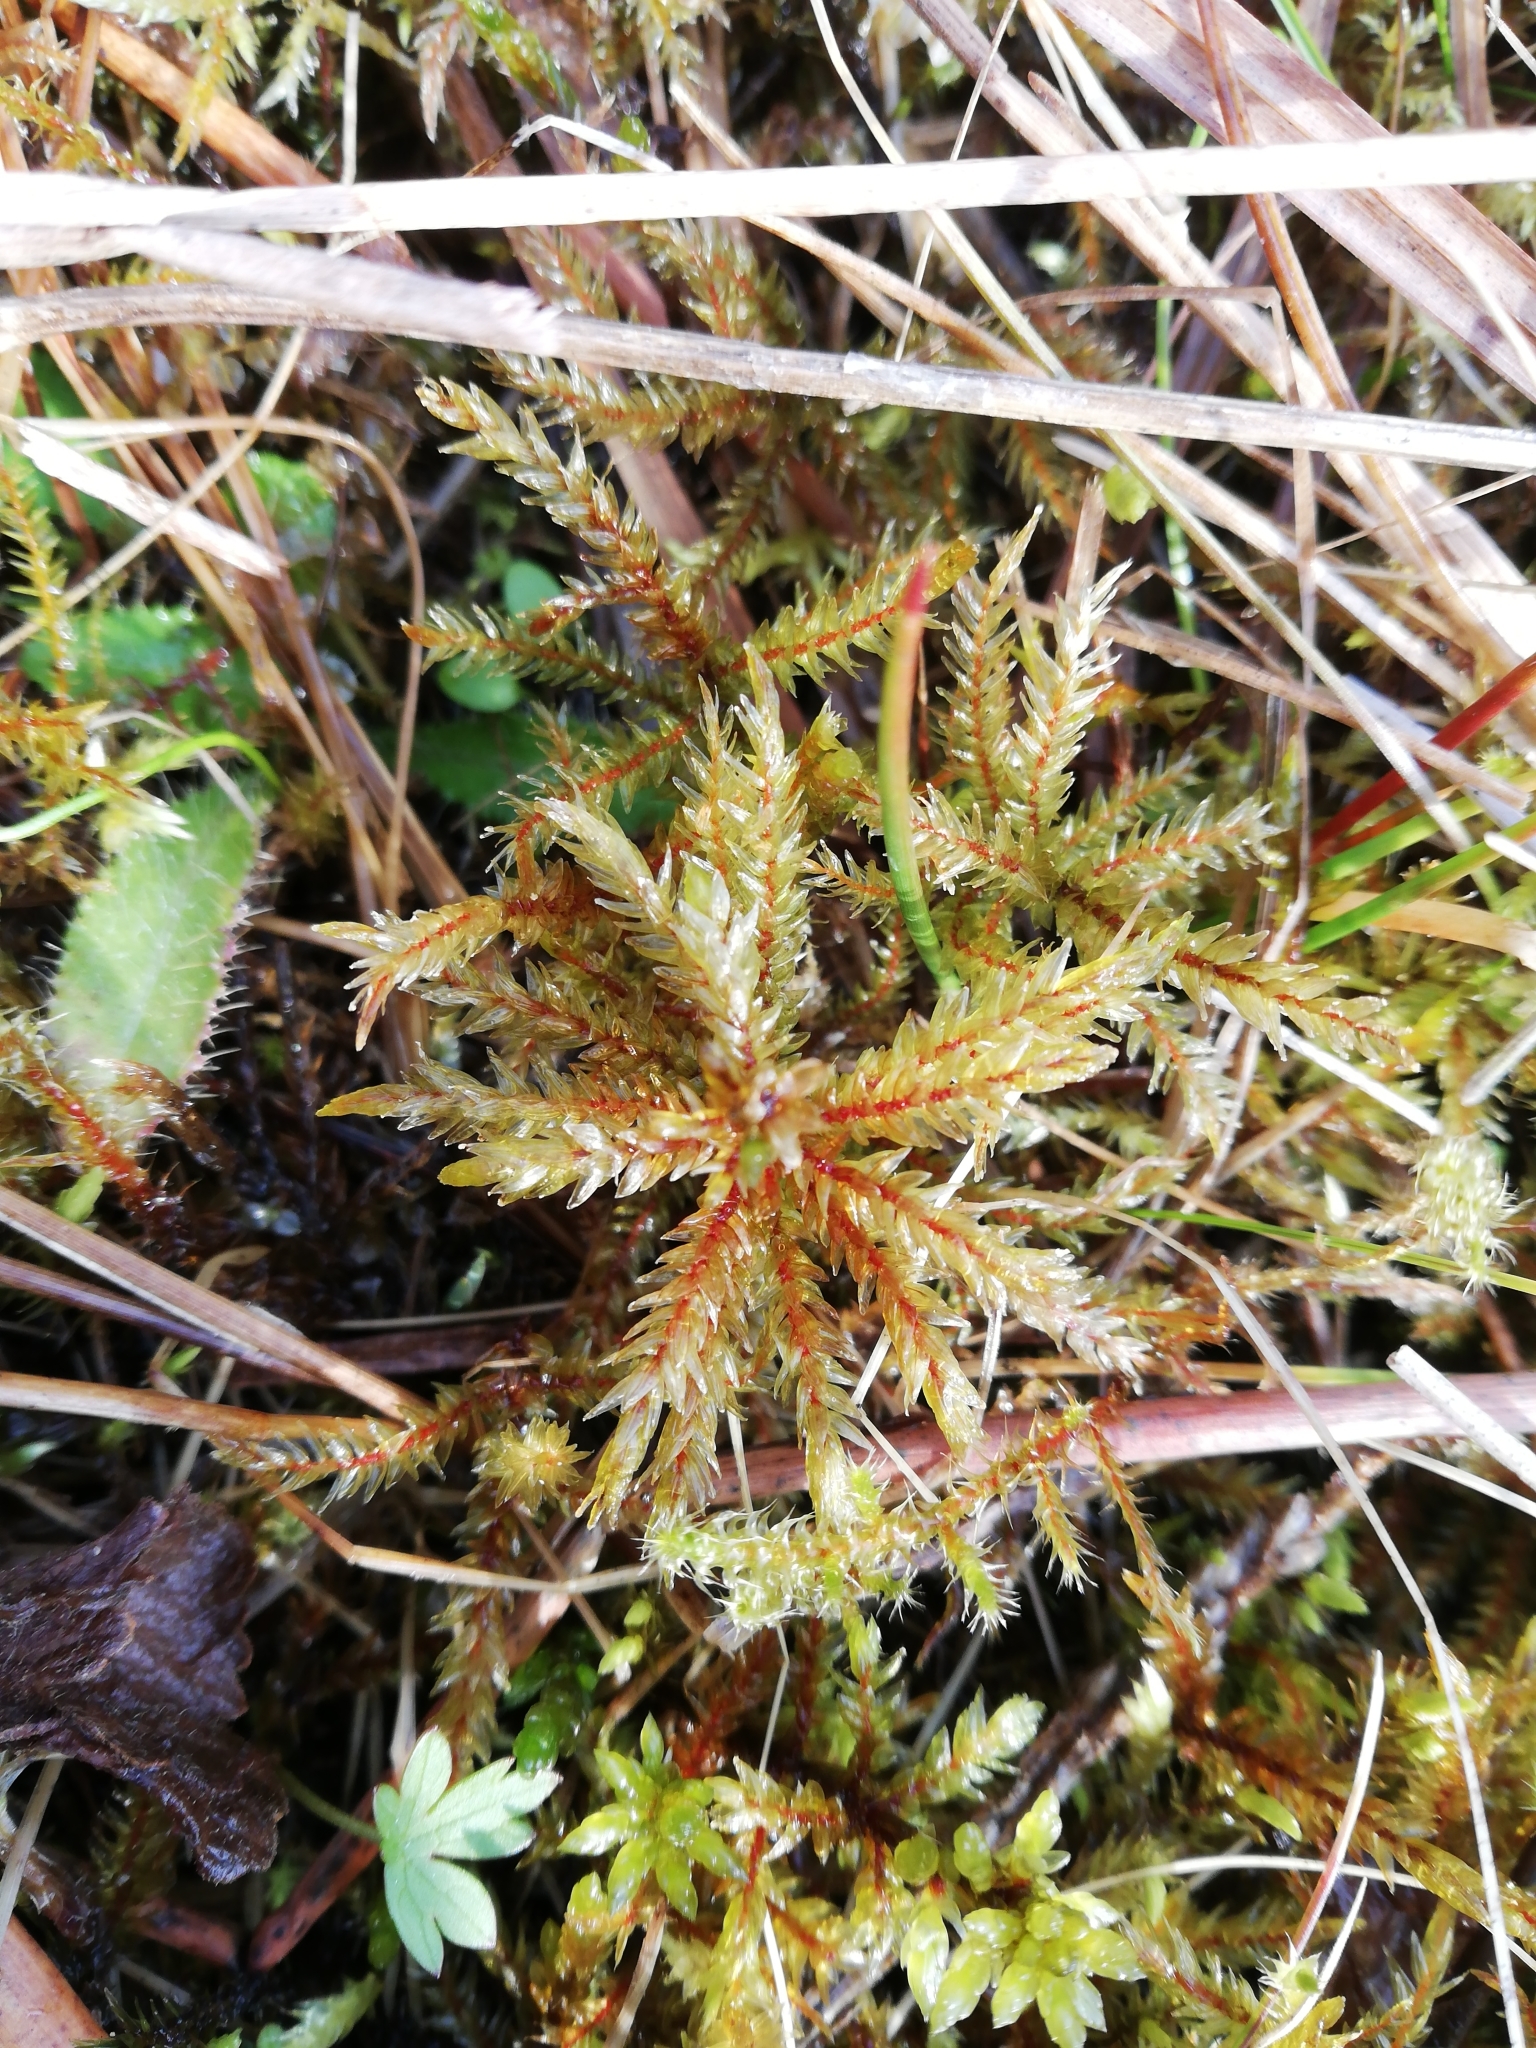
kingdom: Plantae
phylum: Bryophyta
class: Bryopsida
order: Hypnales
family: Climaciaceae
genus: Climacium
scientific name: Climacium dendroides
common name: Northern tree moss
